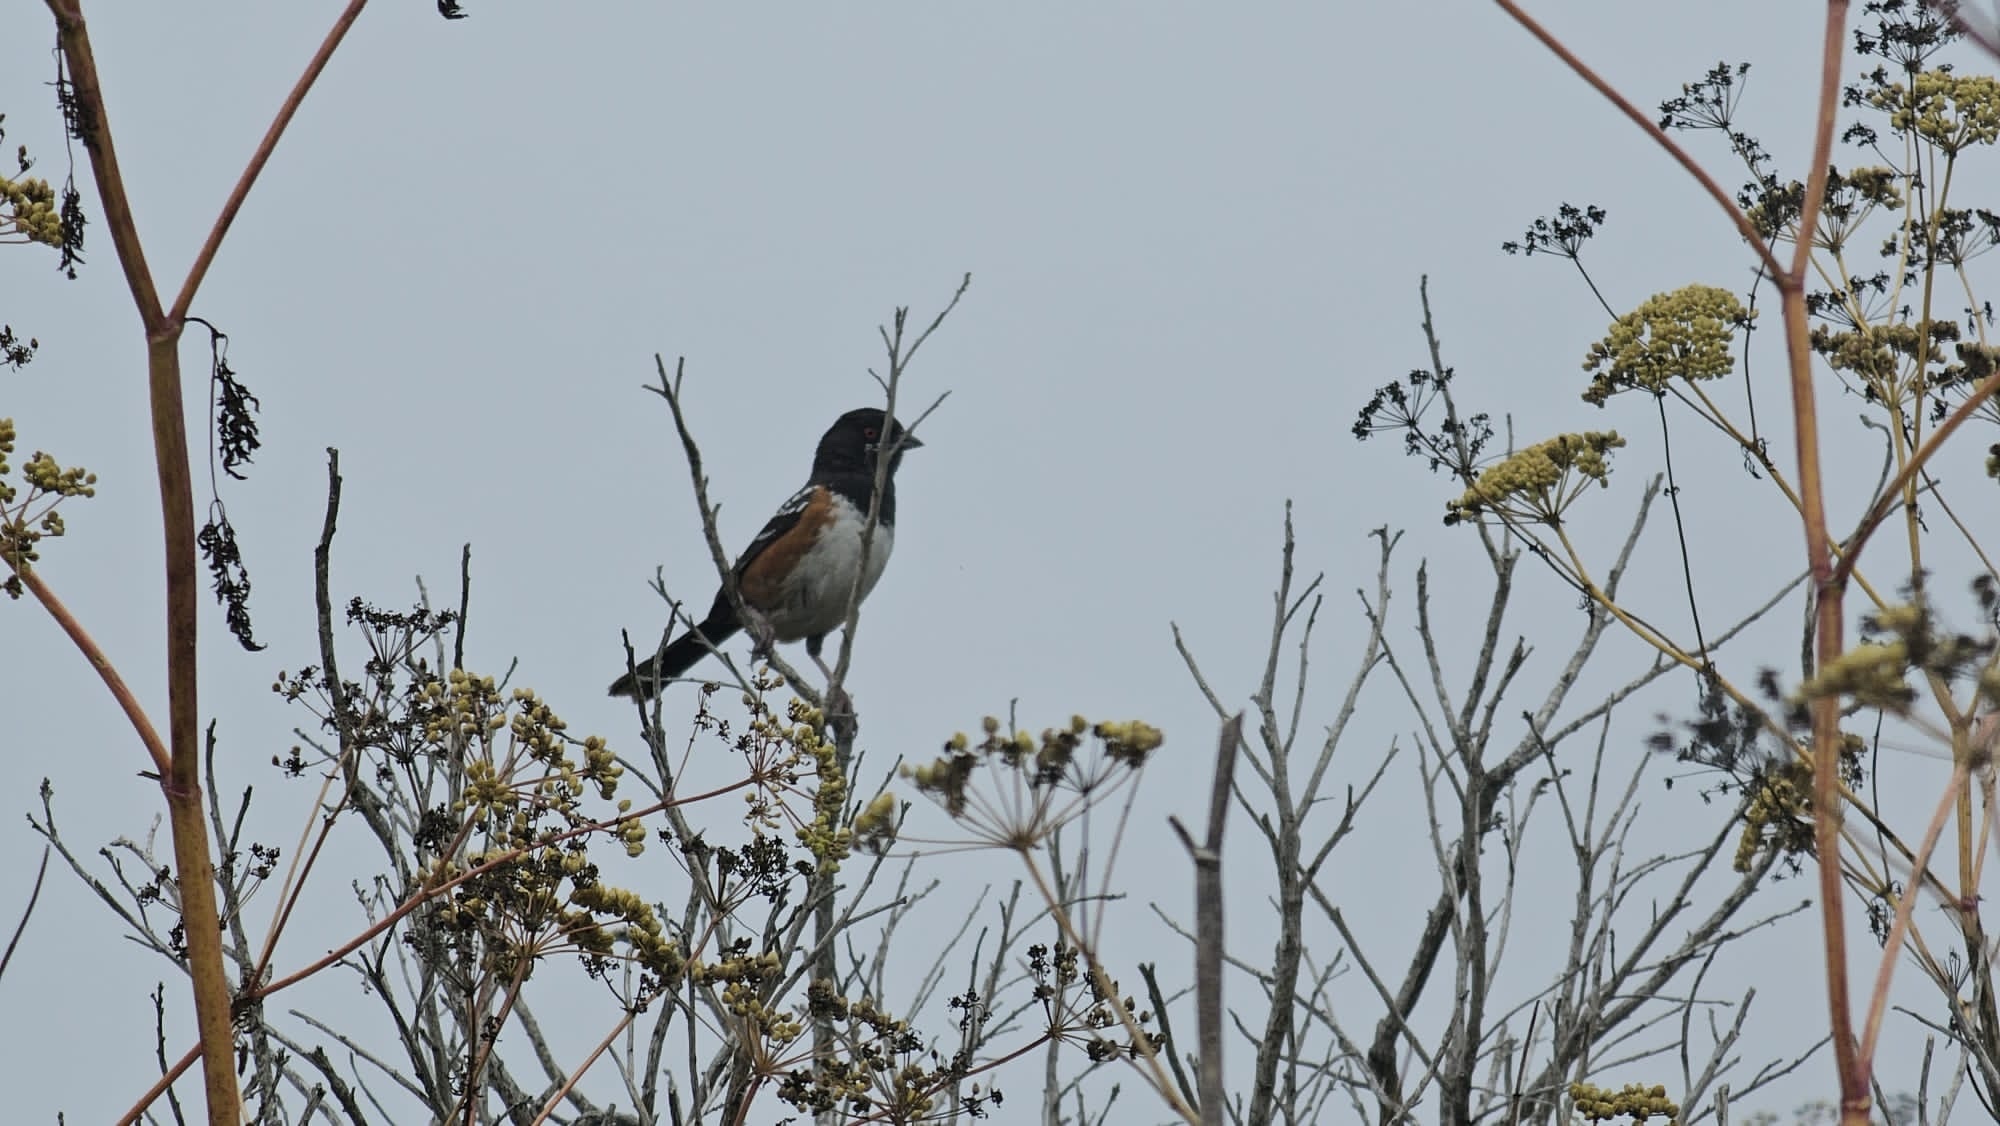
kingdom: Animalia
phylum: Chordata
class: Aves
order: Passeriformes
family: Passerellidae
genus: Pipilo
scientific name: Pipilo maculatus
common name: Spotted towhee
